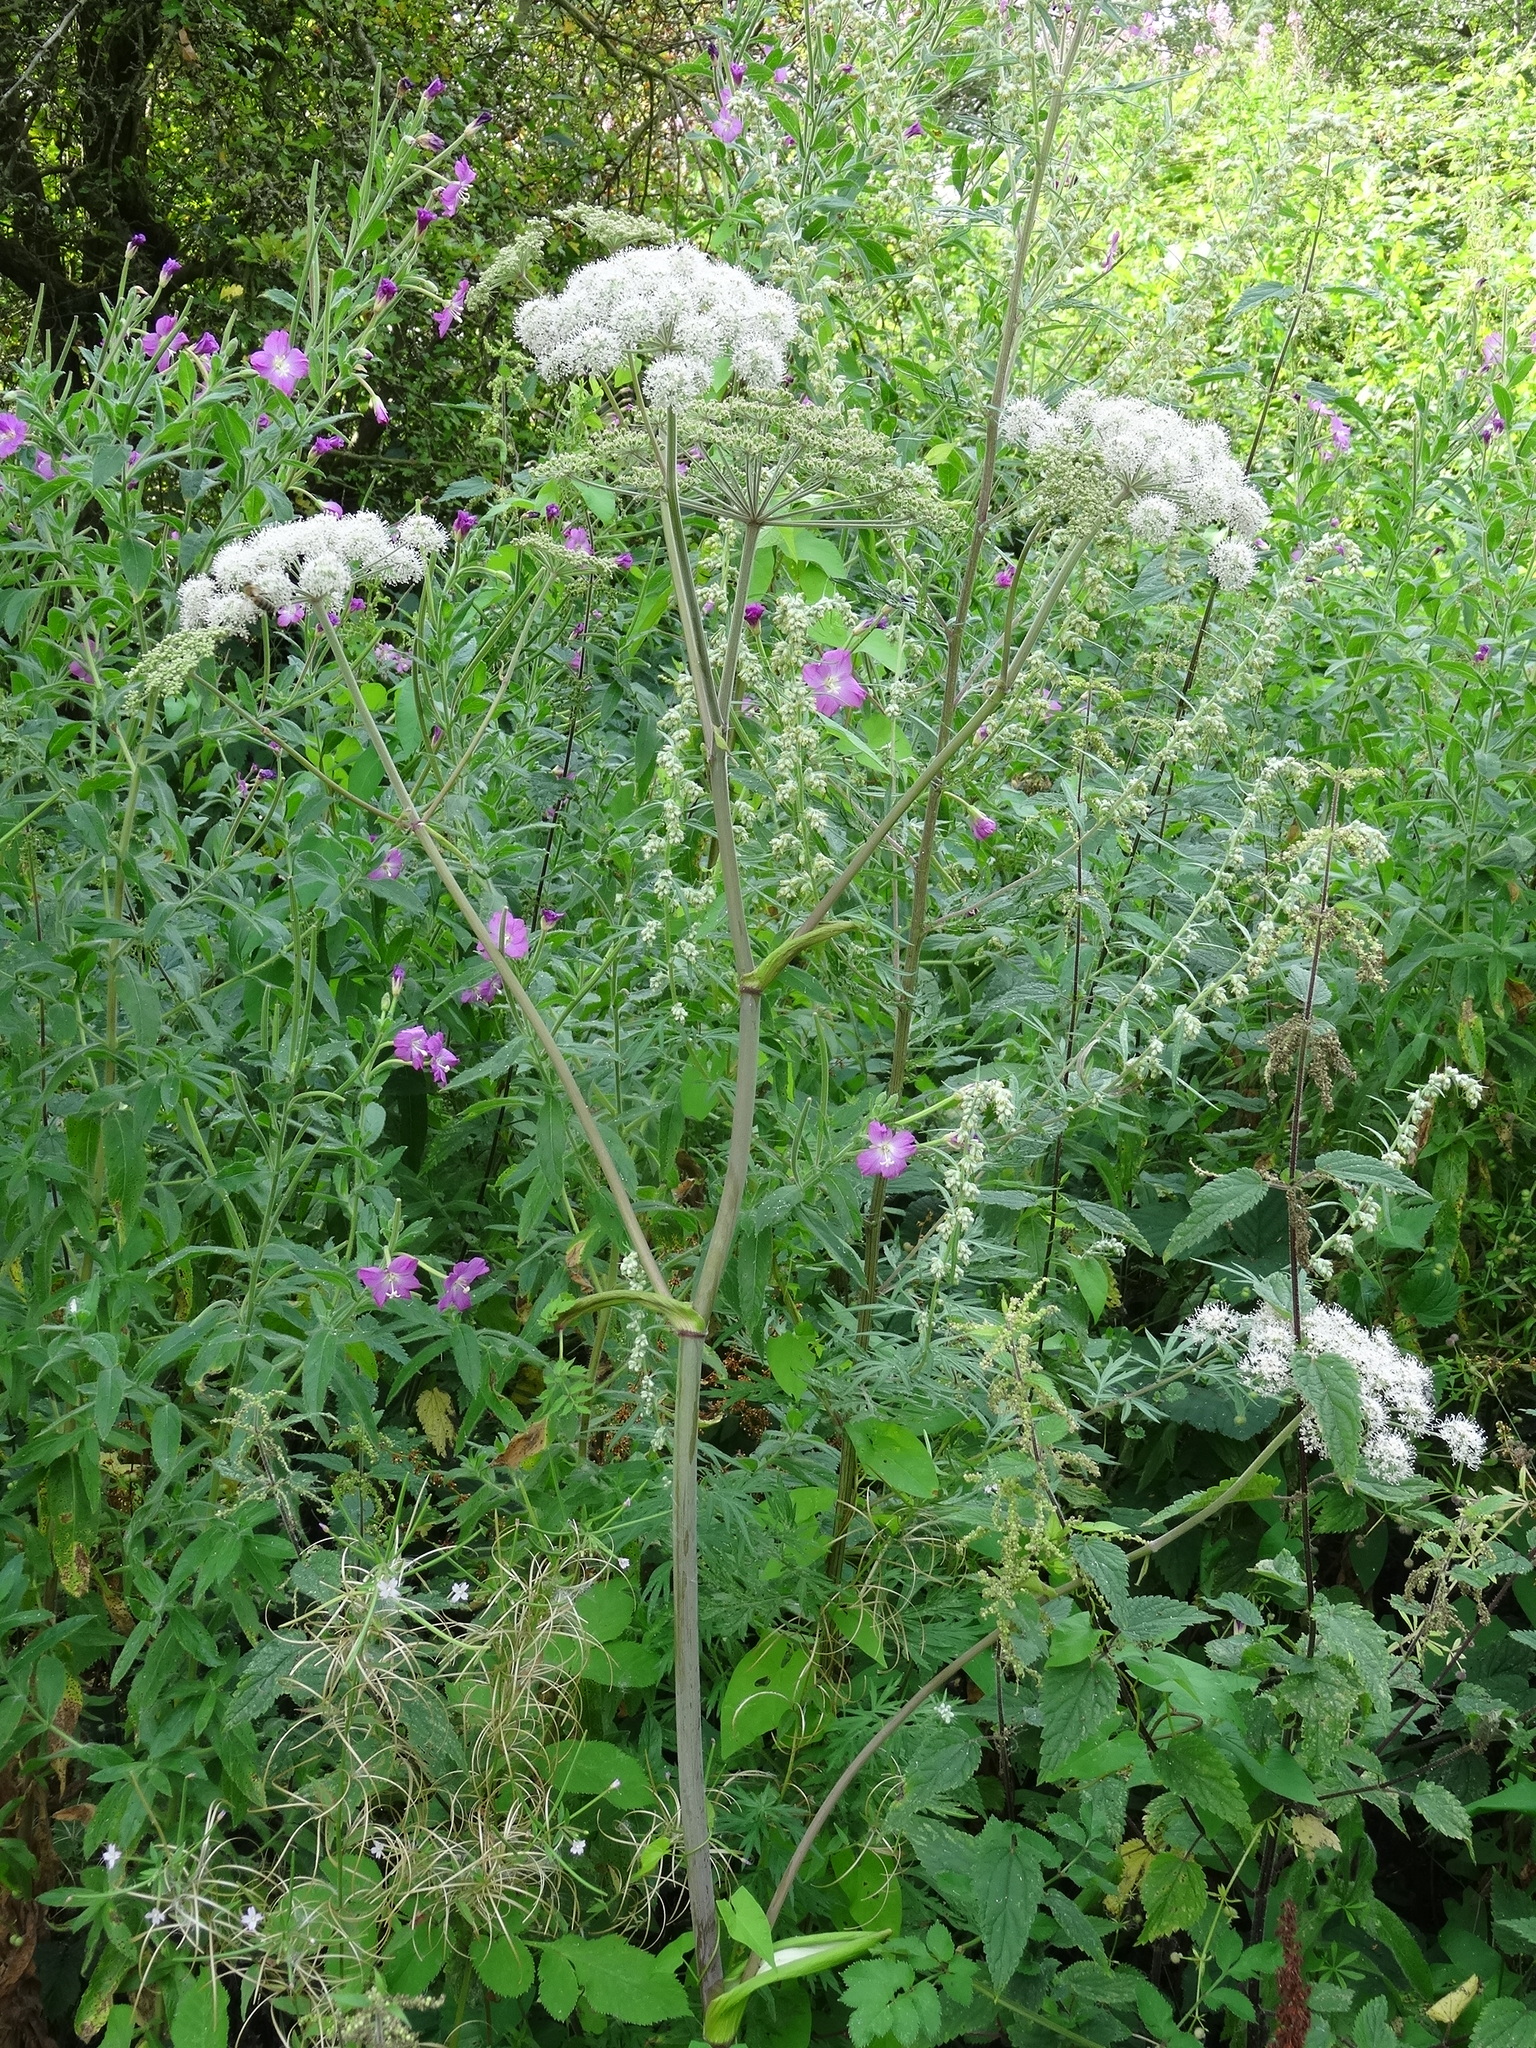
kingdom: Plantae
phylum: Tracheophyta
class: Magnoliopsida
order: Apiales
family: Apiaceae
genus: Angelica
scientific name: Angelica sylvestris
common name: Wild angelica
